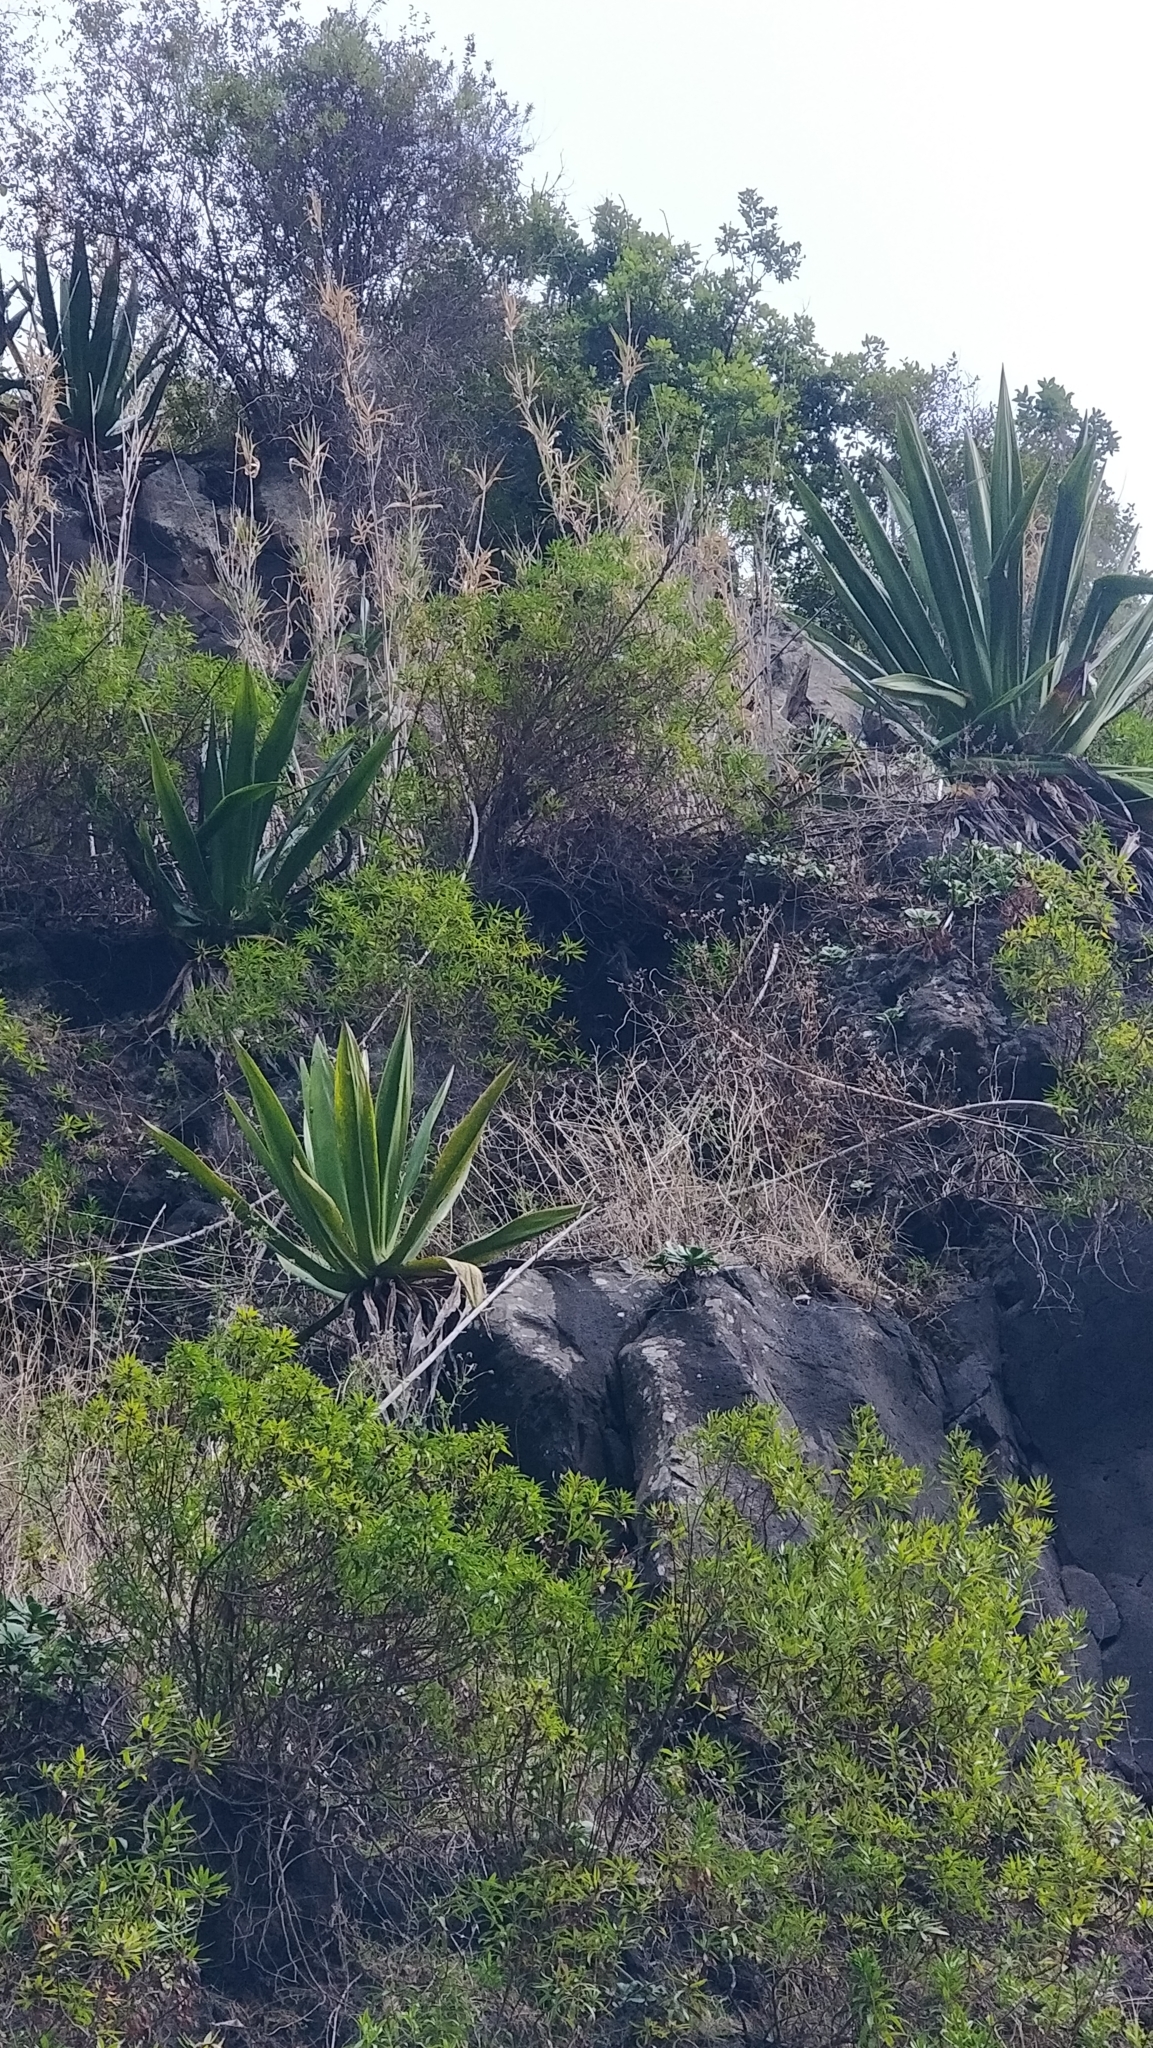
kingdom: Plantae
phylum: Tracheophyta
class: Liliopsida
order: Asparagales
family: Asparagaceae
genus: Furcraea
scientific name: Furcraea foetida
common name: Mauritius hemp
